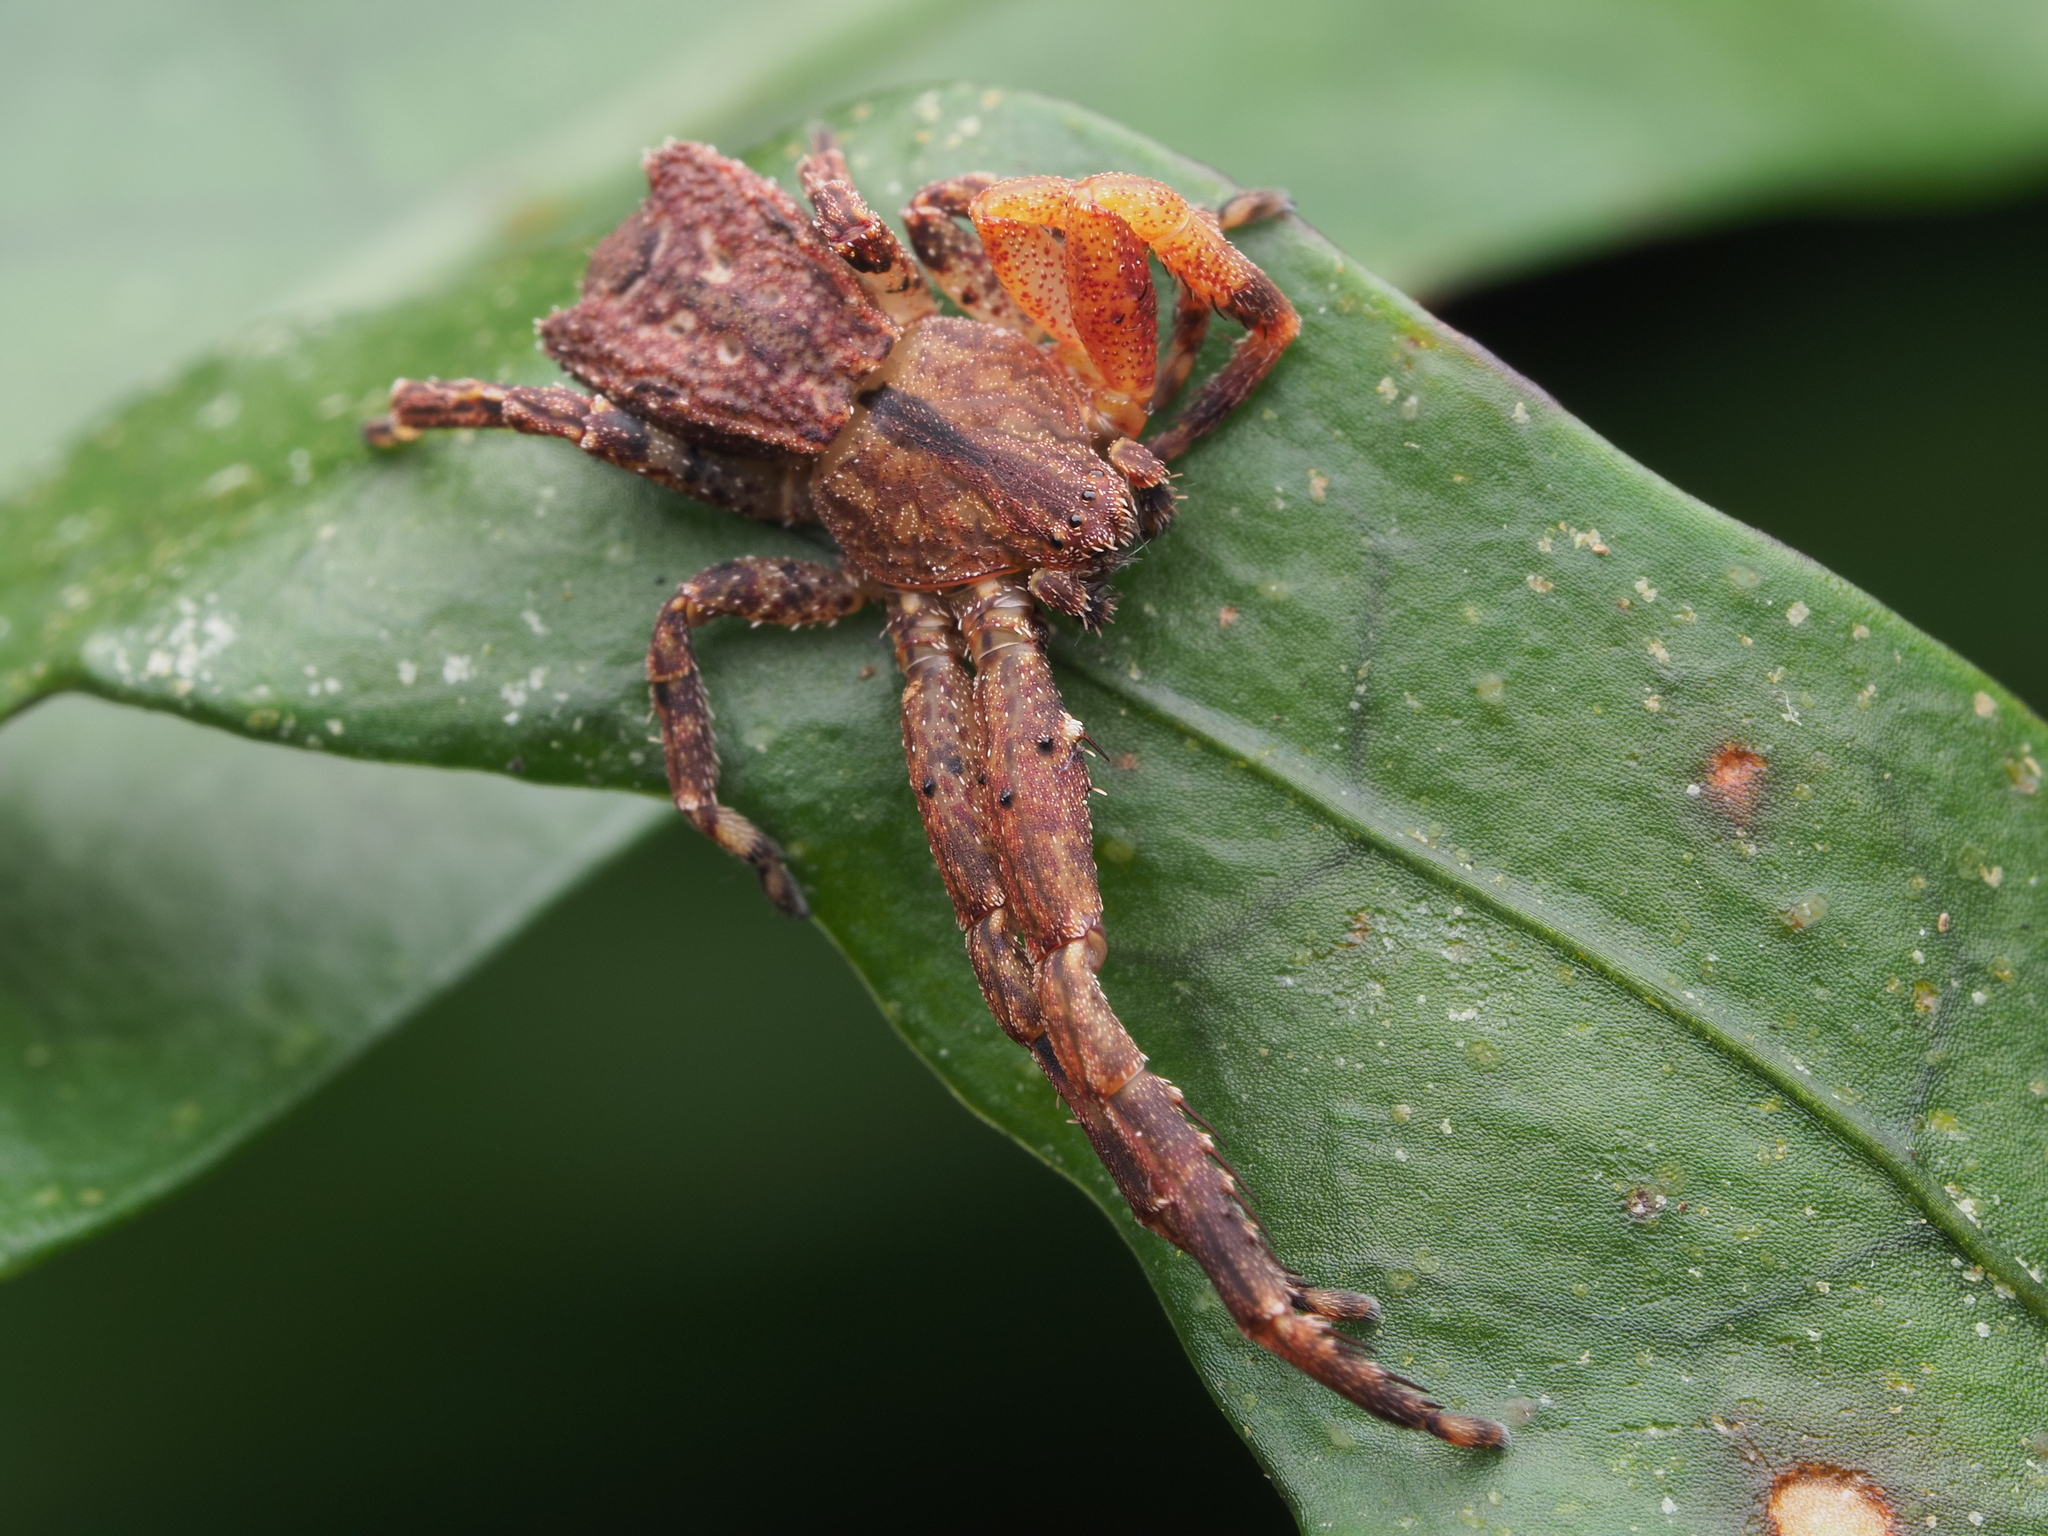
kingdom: Animalia
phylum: Arthropoda
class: Arachnida
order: Araneae
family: Thomisidae
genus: Sidymella
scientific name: Sidymella angularis
